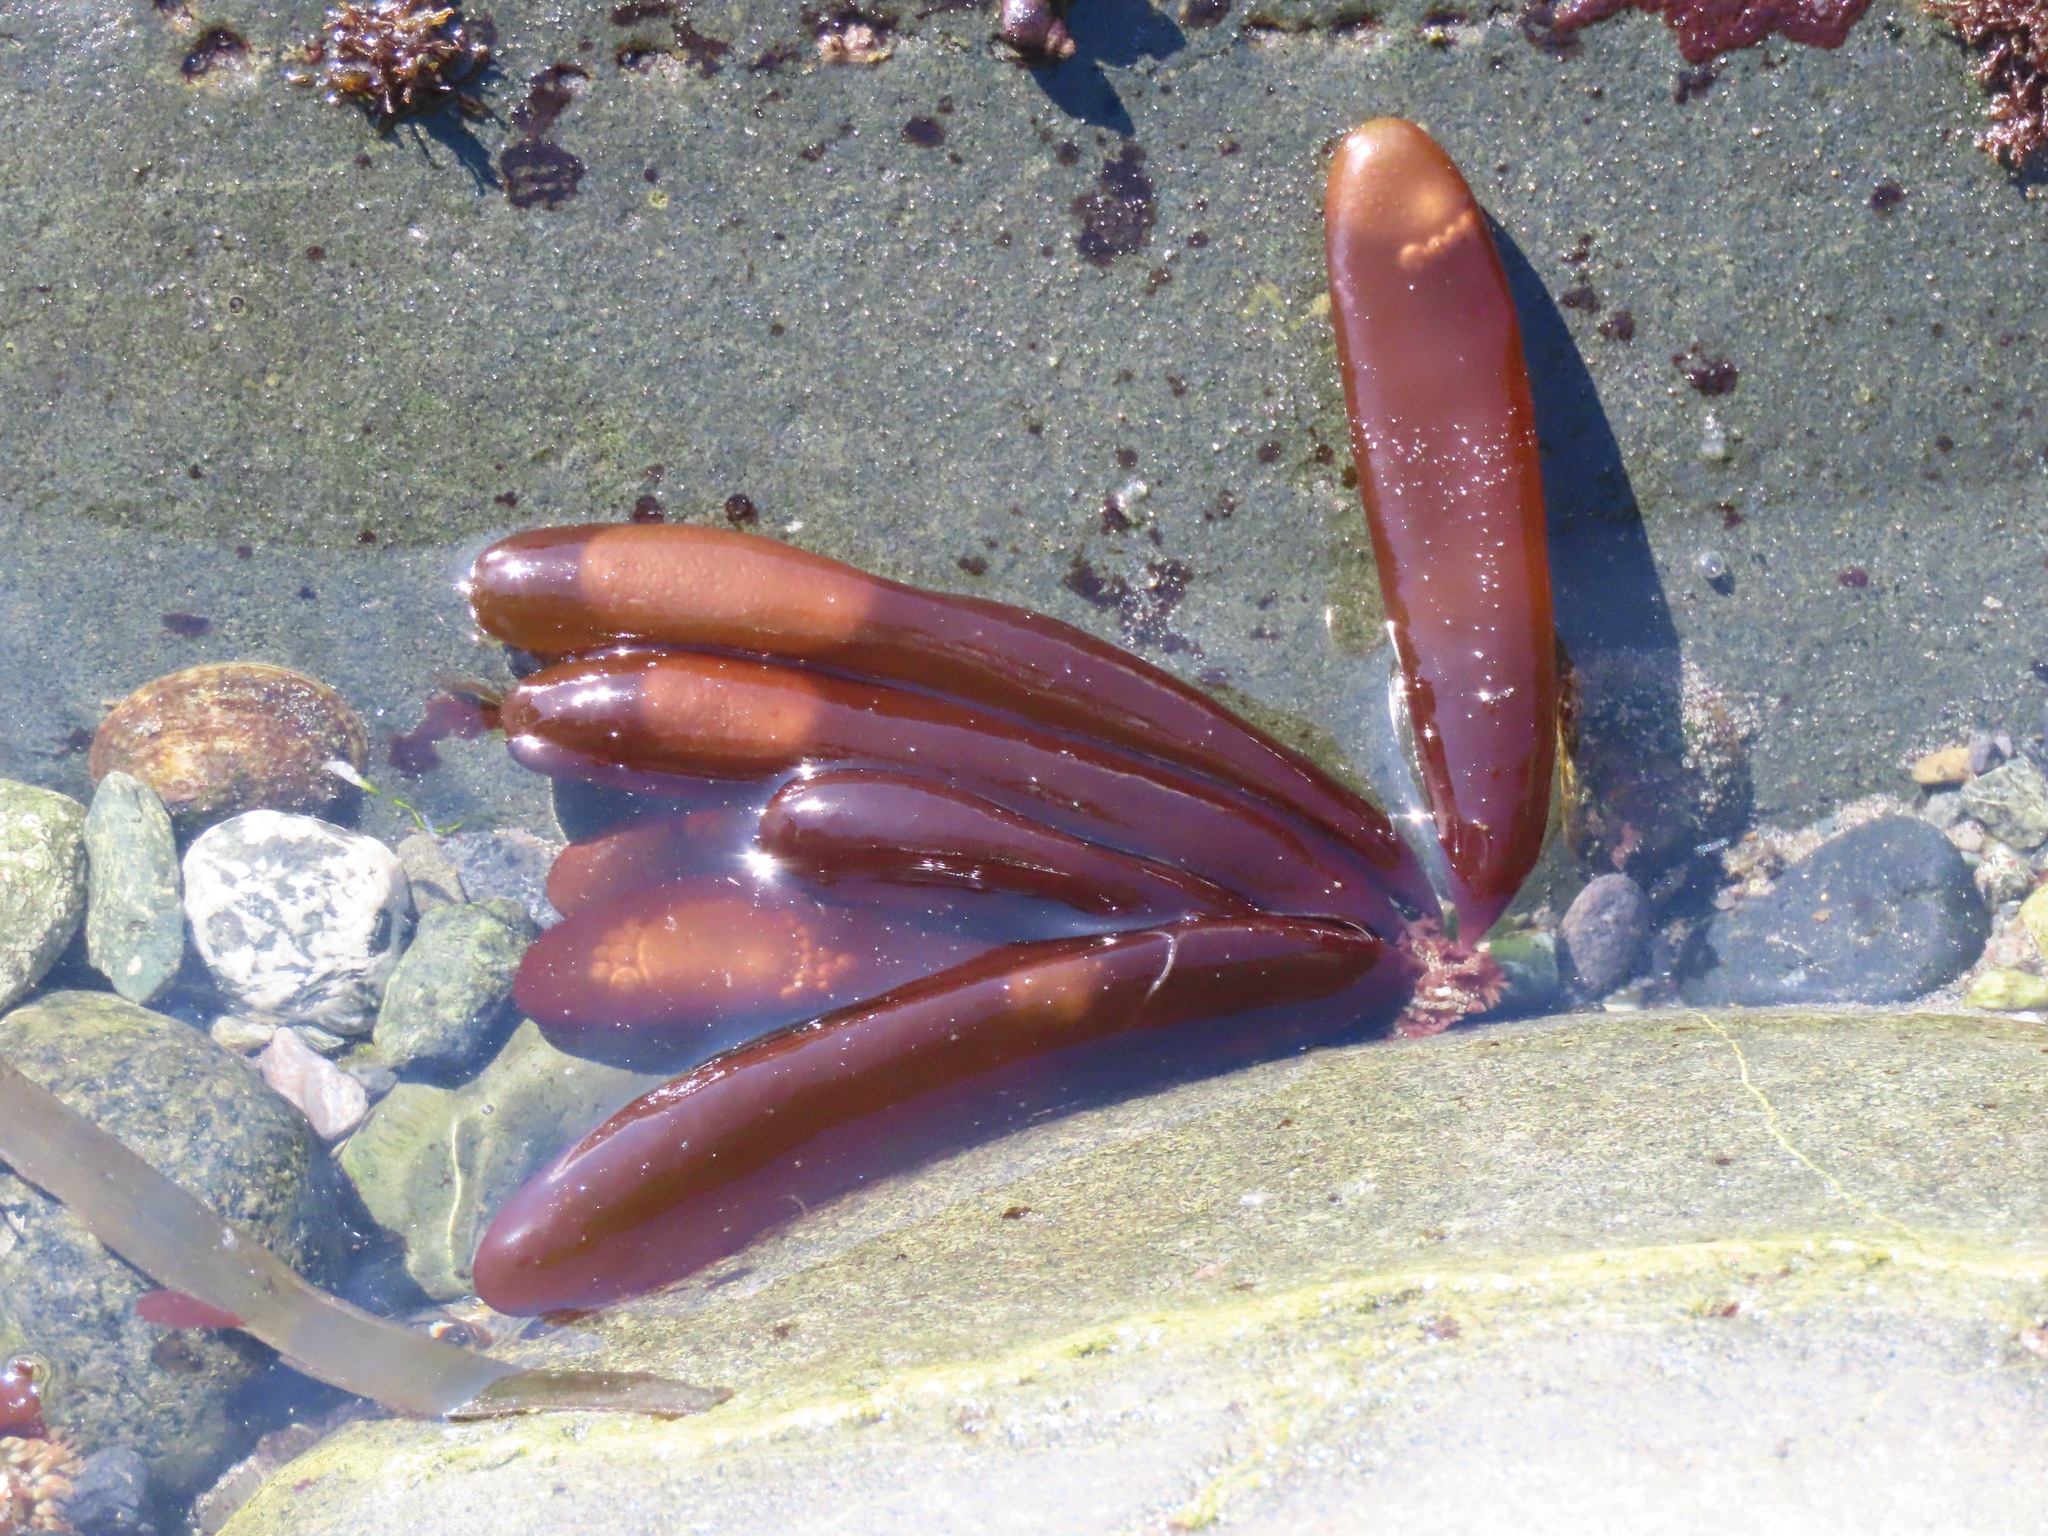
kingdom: Plantae
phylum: Rhodophyta
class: Florideophyceae
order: Palmariales
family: Palmariaceae
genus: Halosaccion
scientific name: Halosaccion glandiforme
